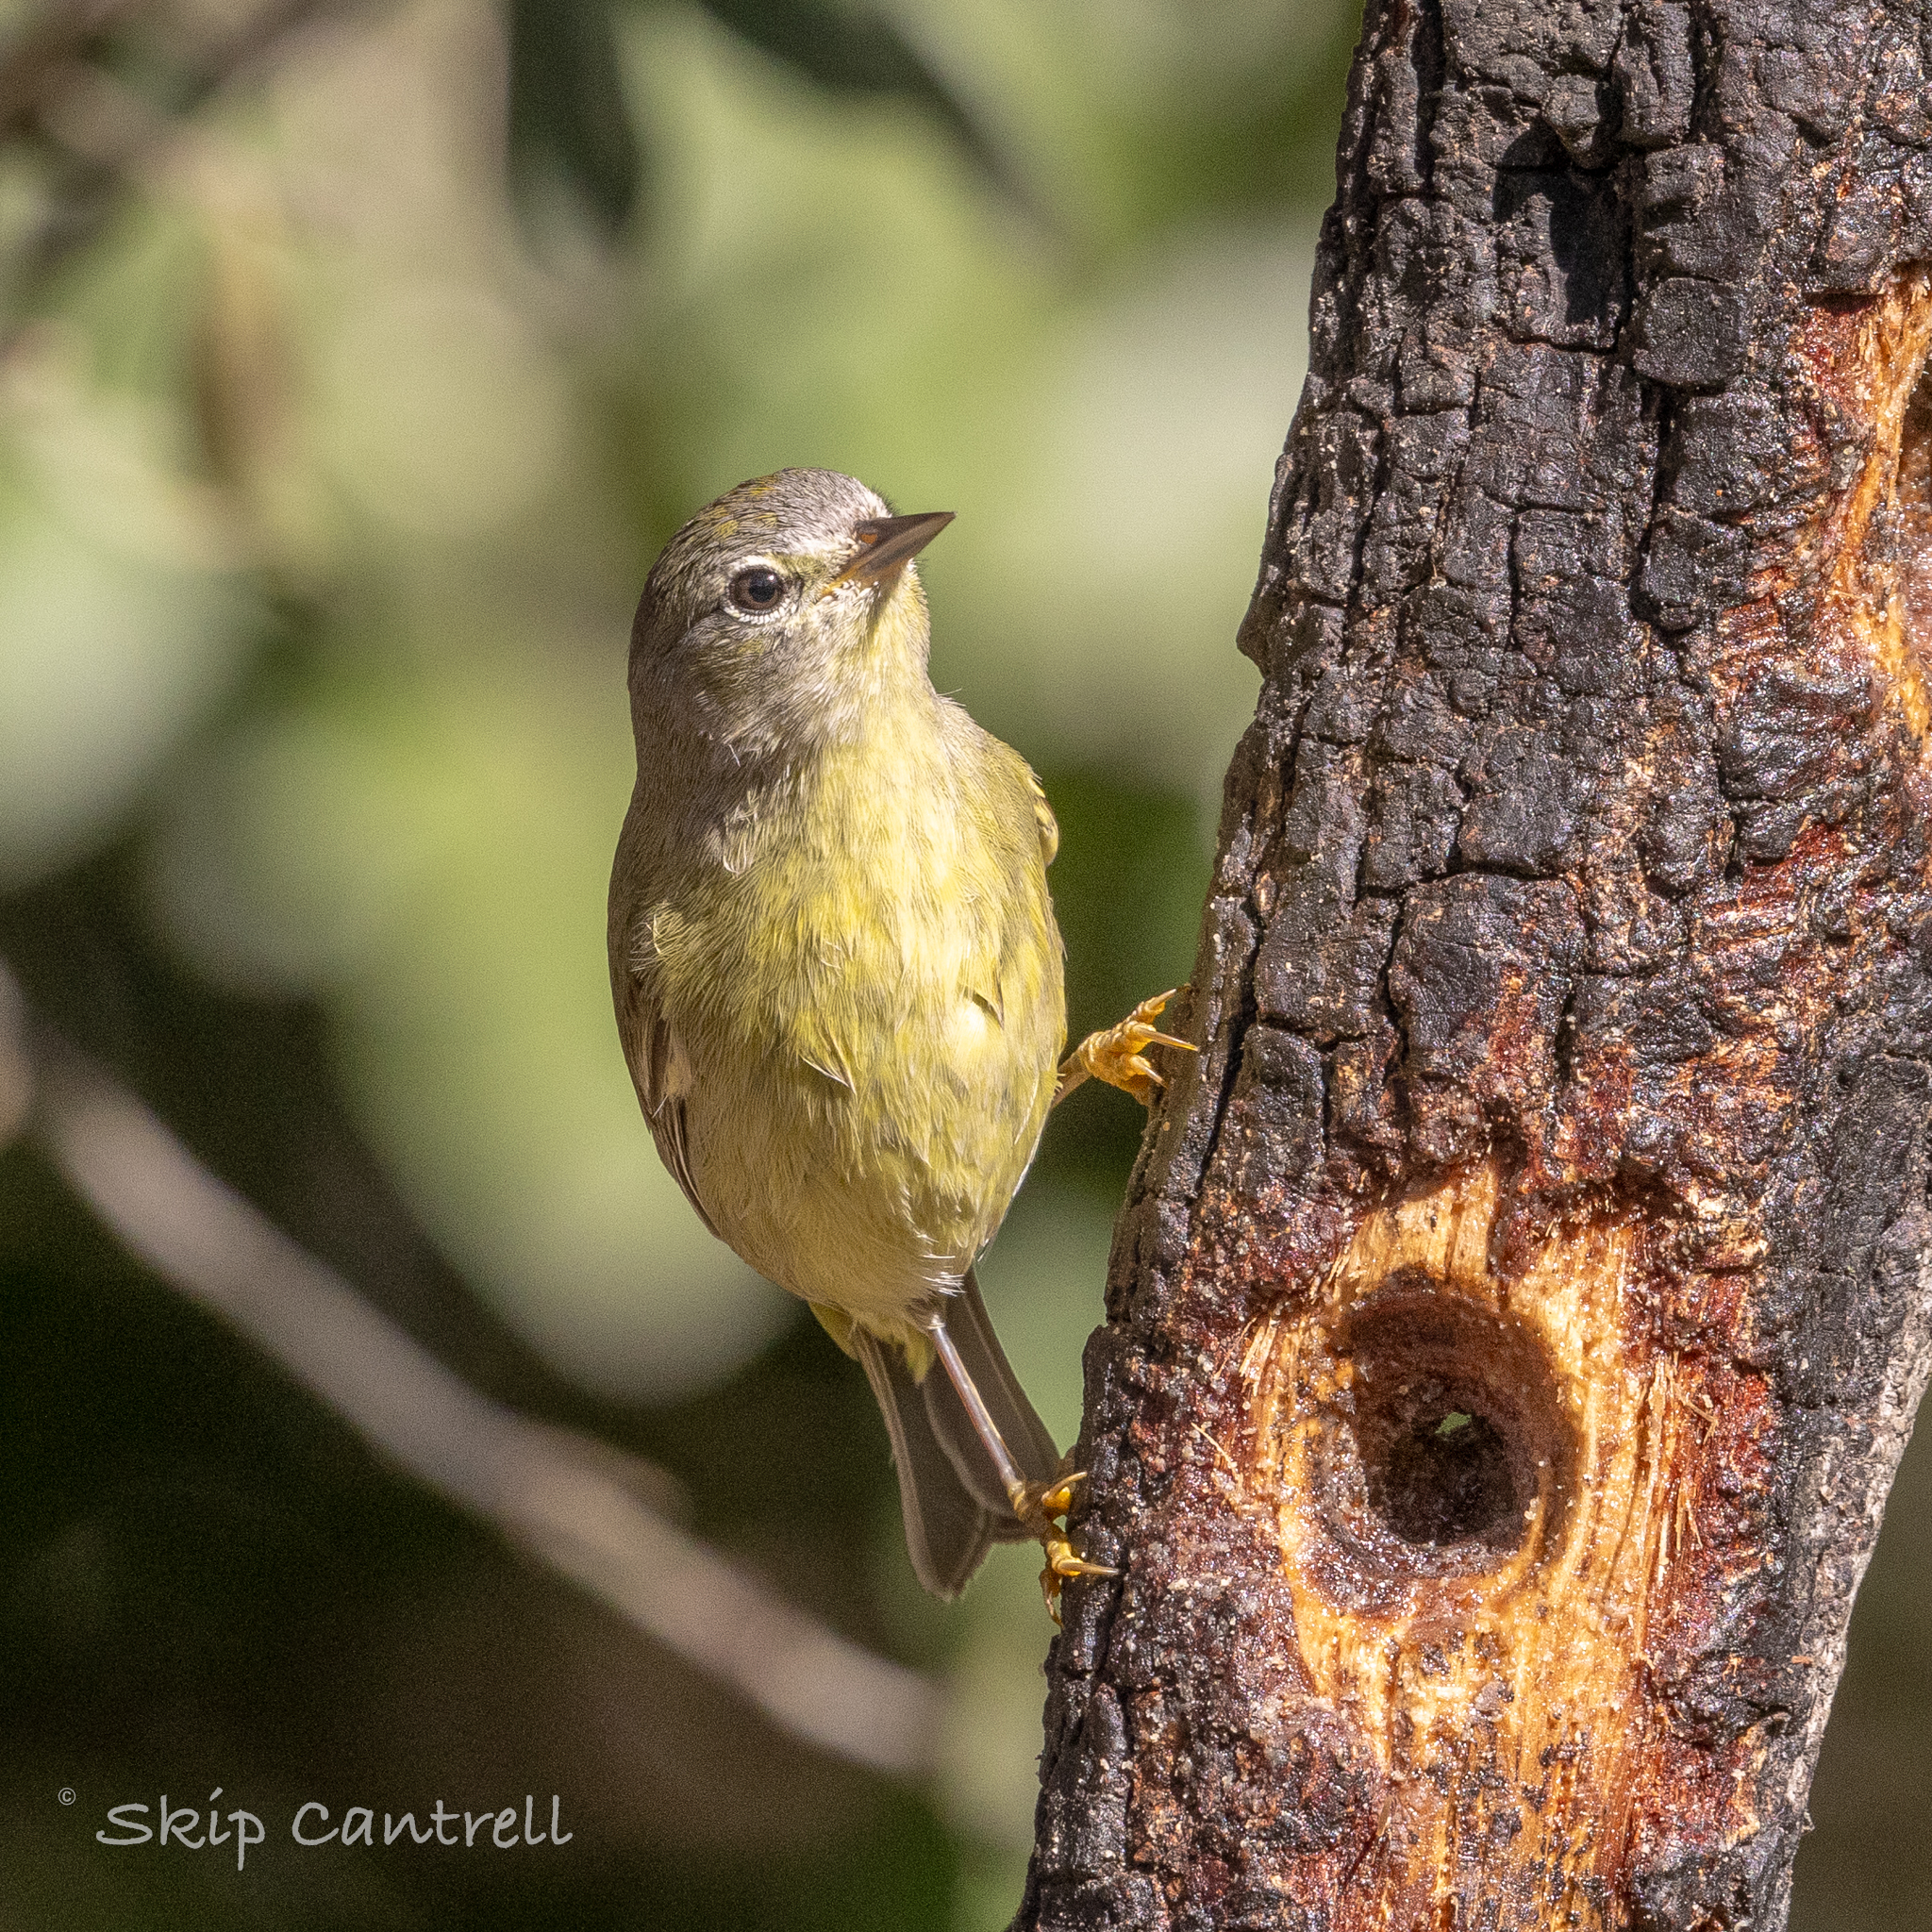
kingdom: Animalia
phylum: Chordata
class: Aves
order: Passeriformes
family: Parulidae
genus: Leiothlypis
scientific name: Leiothlypis celata
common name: Orange-crowned warbler
